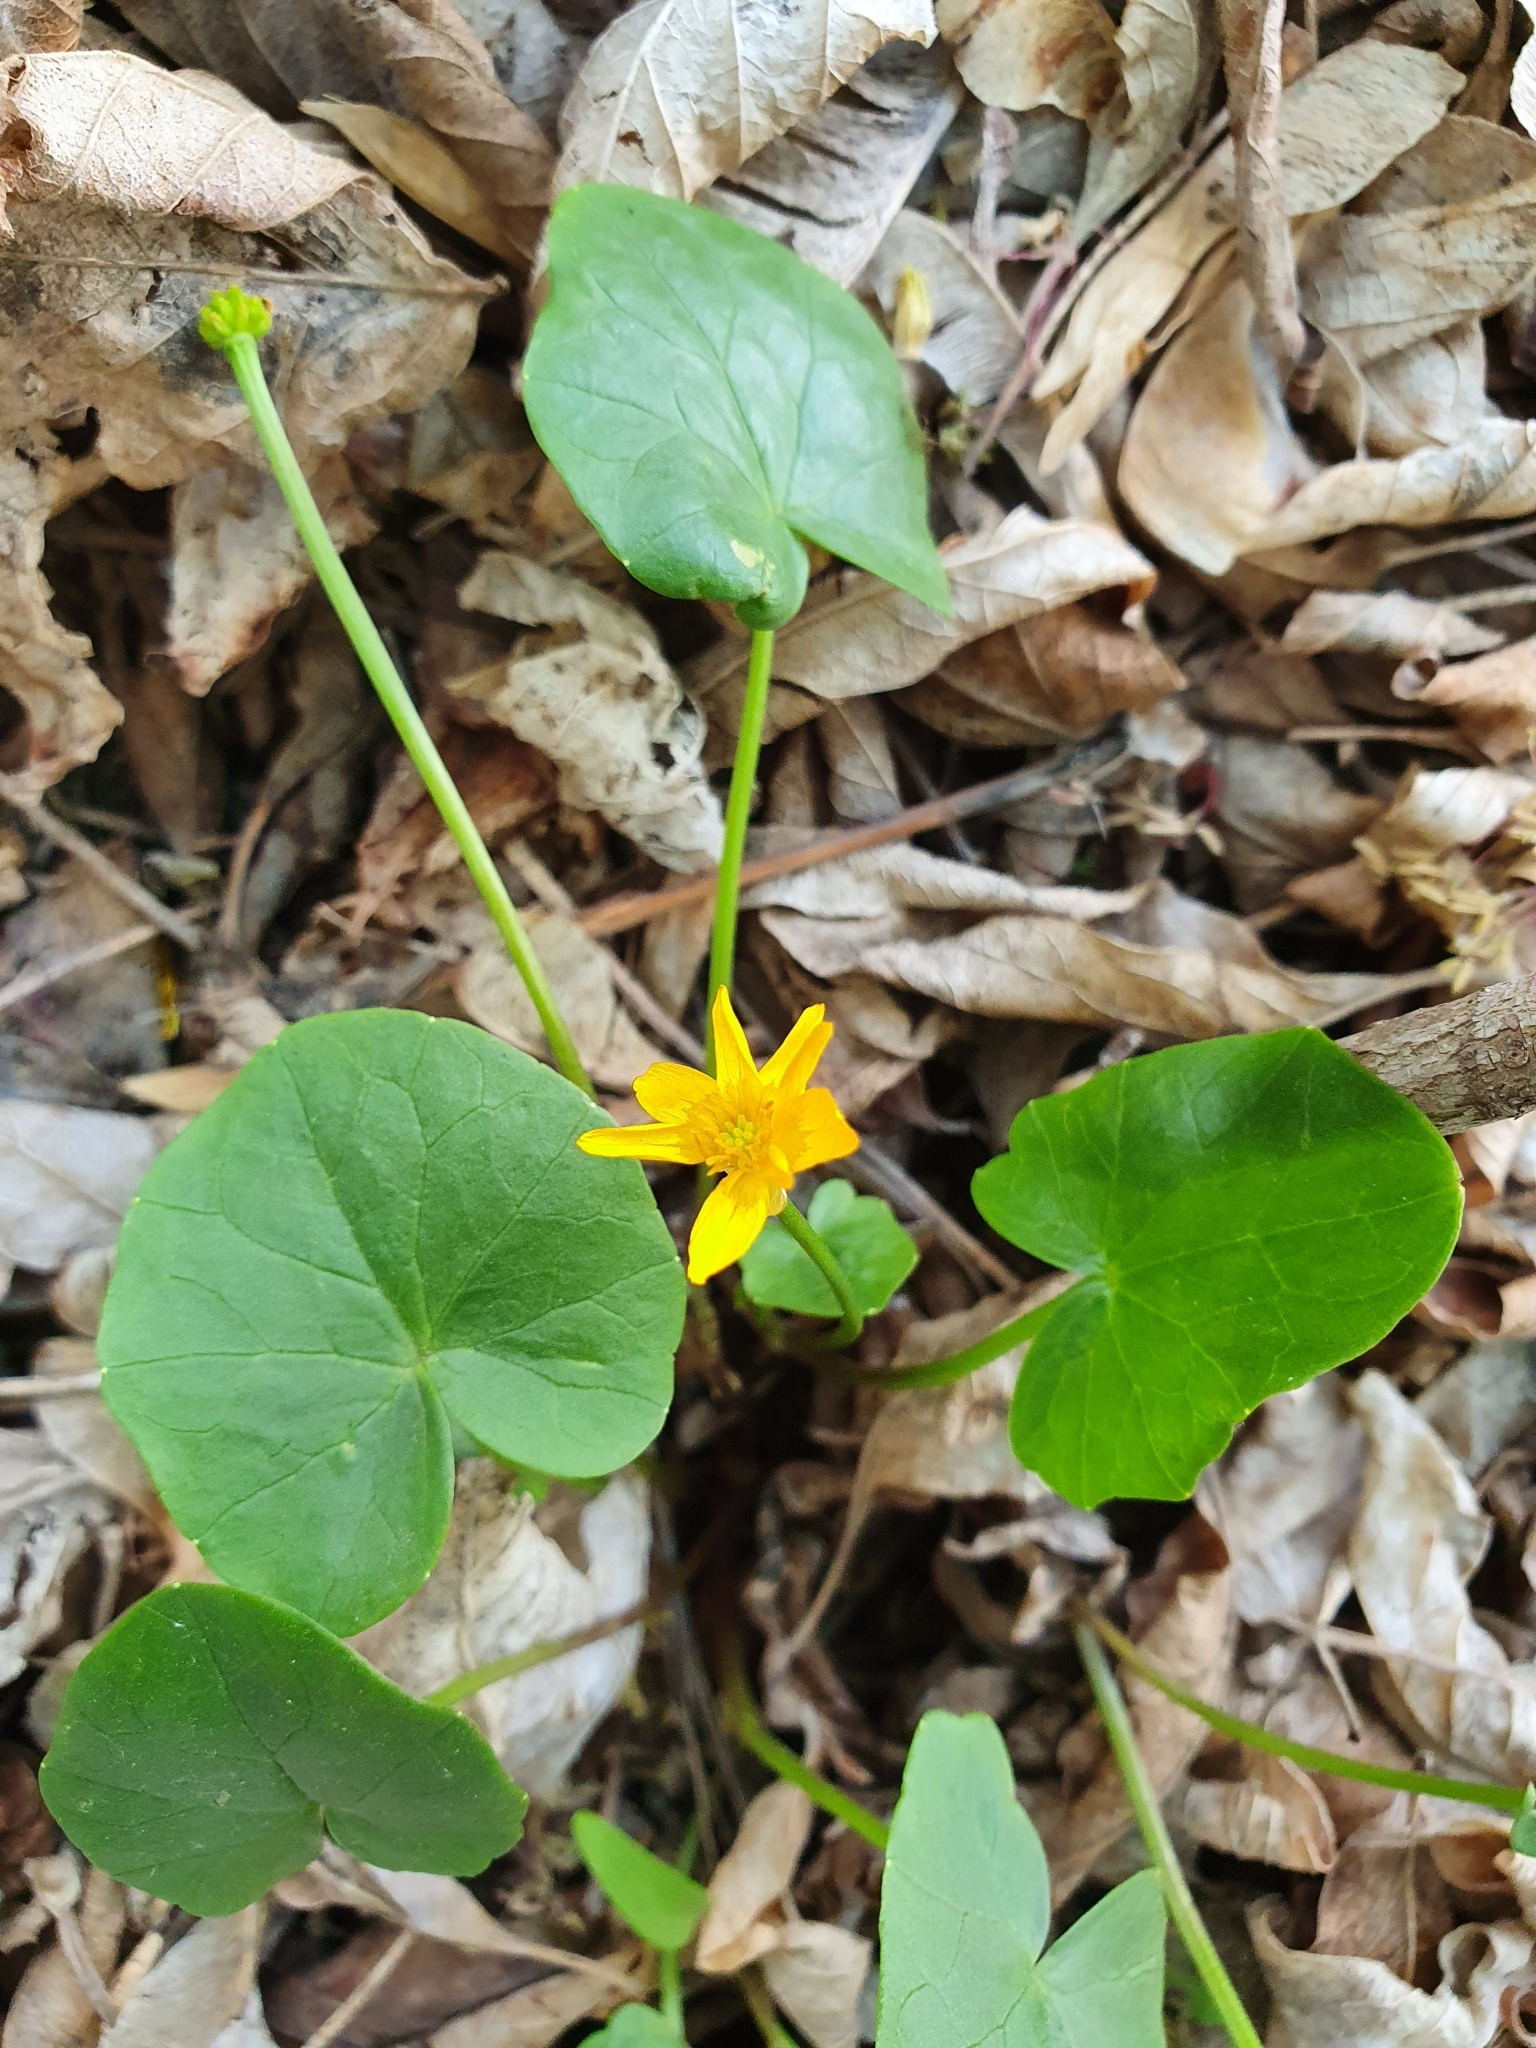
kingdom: Plantae
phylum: Tracheophyta
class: Magnoliopsida
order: Ranunculales
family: Ranunculaceae
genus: Ficaria
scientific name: Ficaria verna
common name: Lesser celandine
